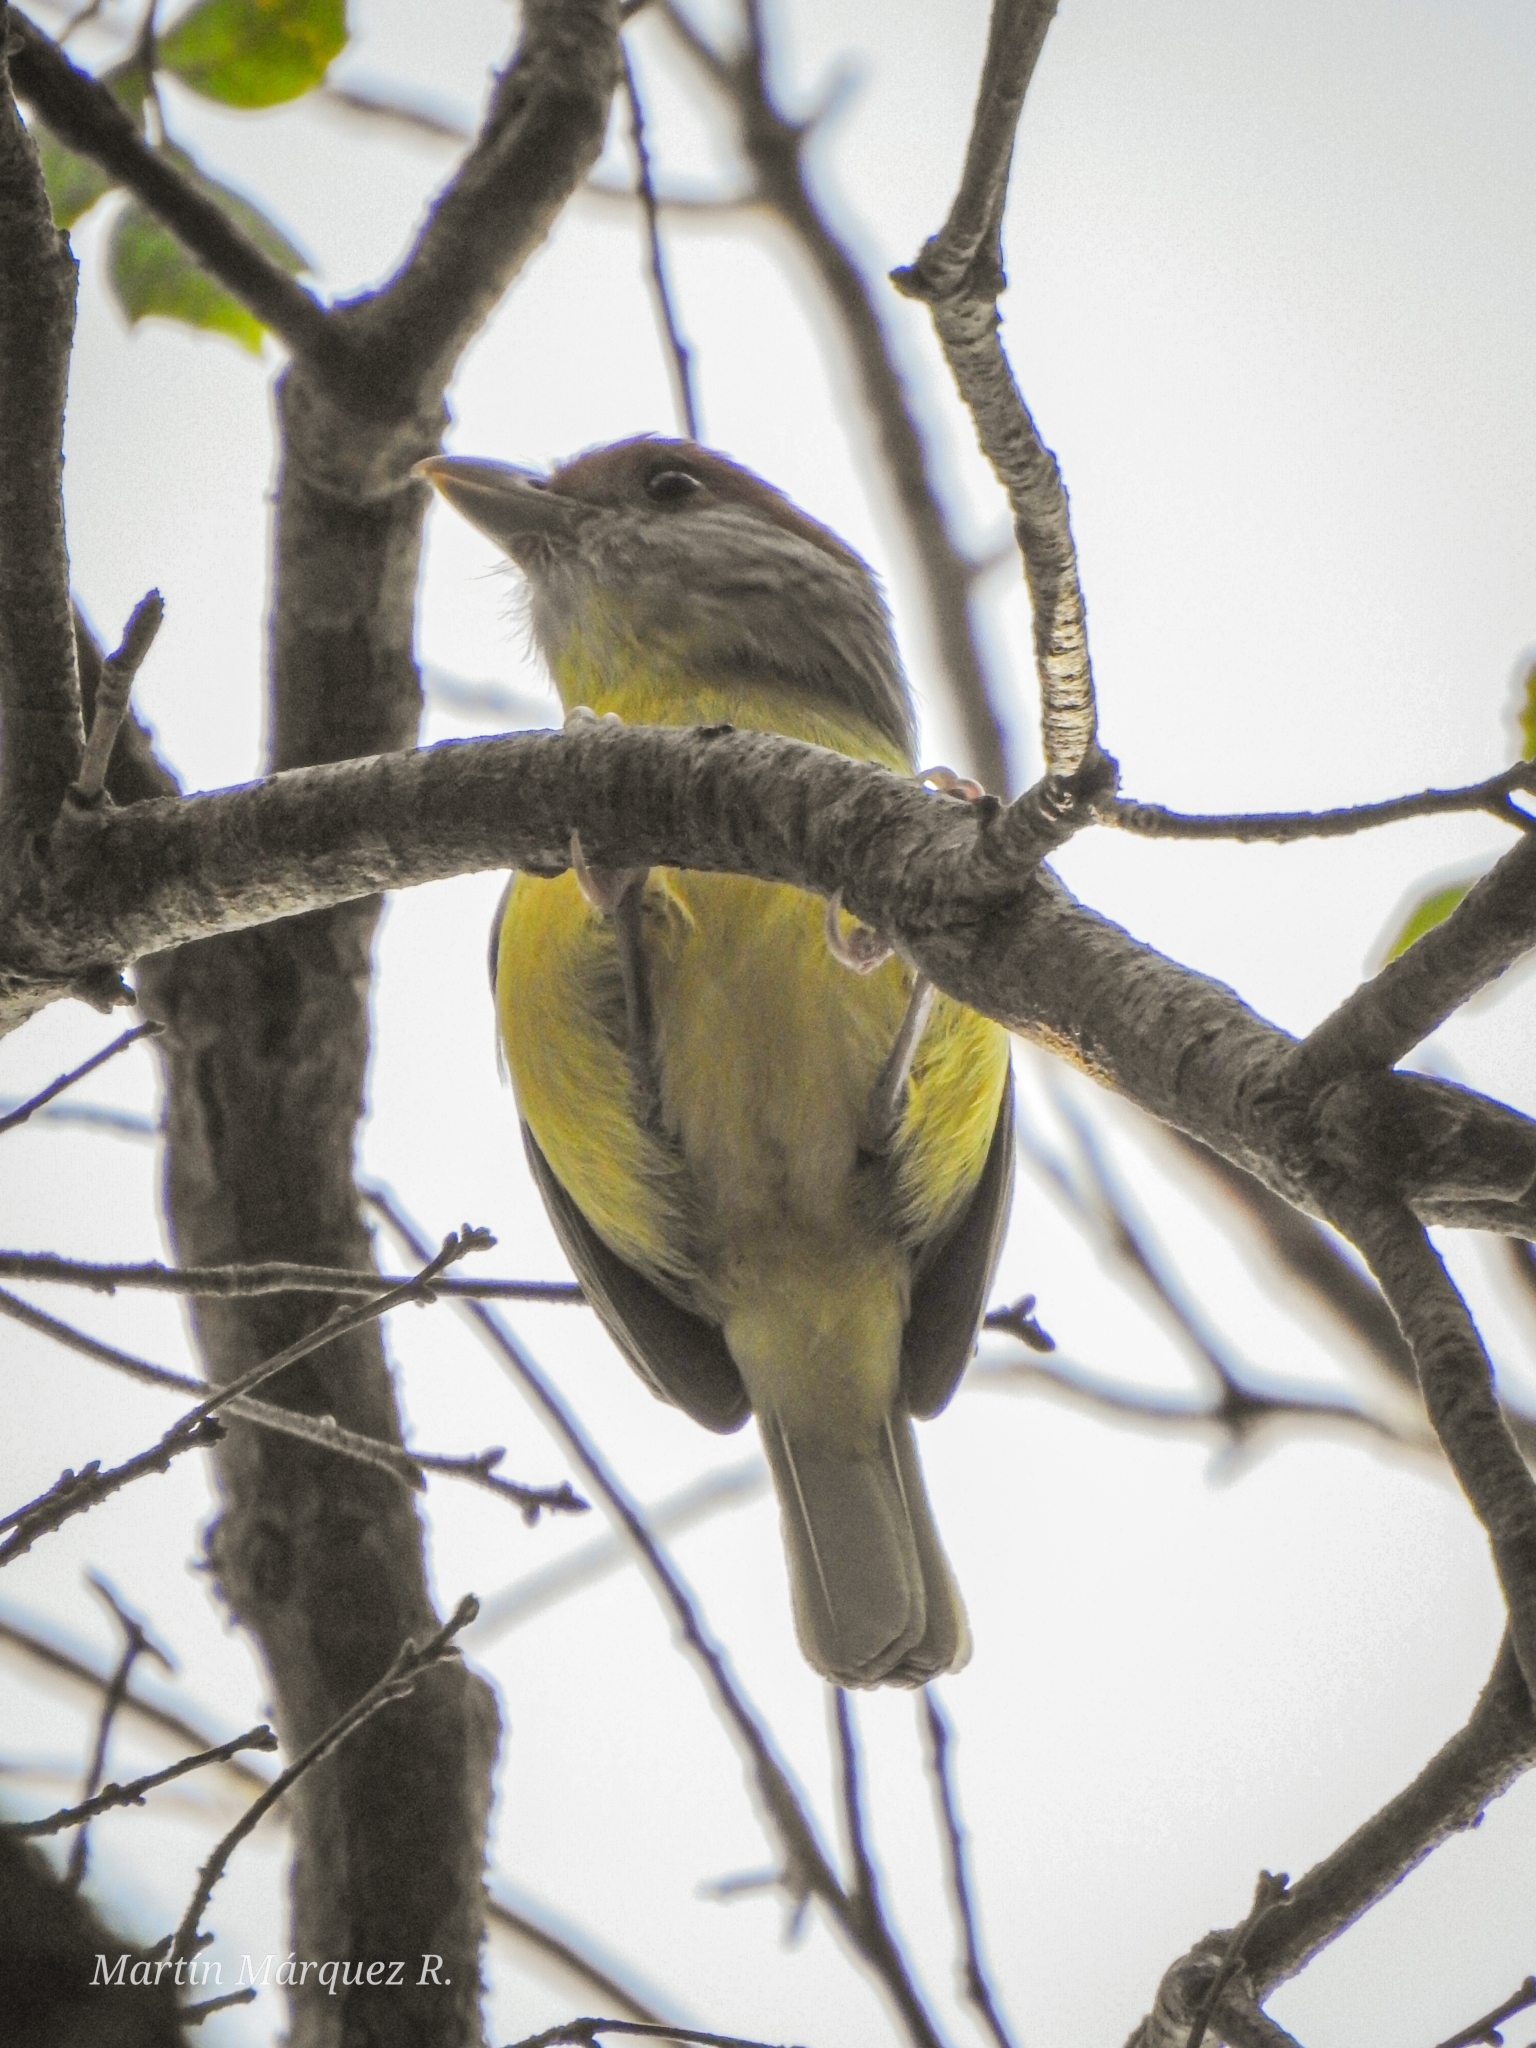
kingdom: Animalia
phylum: Chordata
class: Aves
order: Passeriformes
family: Vireonidae
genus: Cyclarhis
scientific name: Cyclarhis gujanensis
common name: Rufous-browed peppershrike
